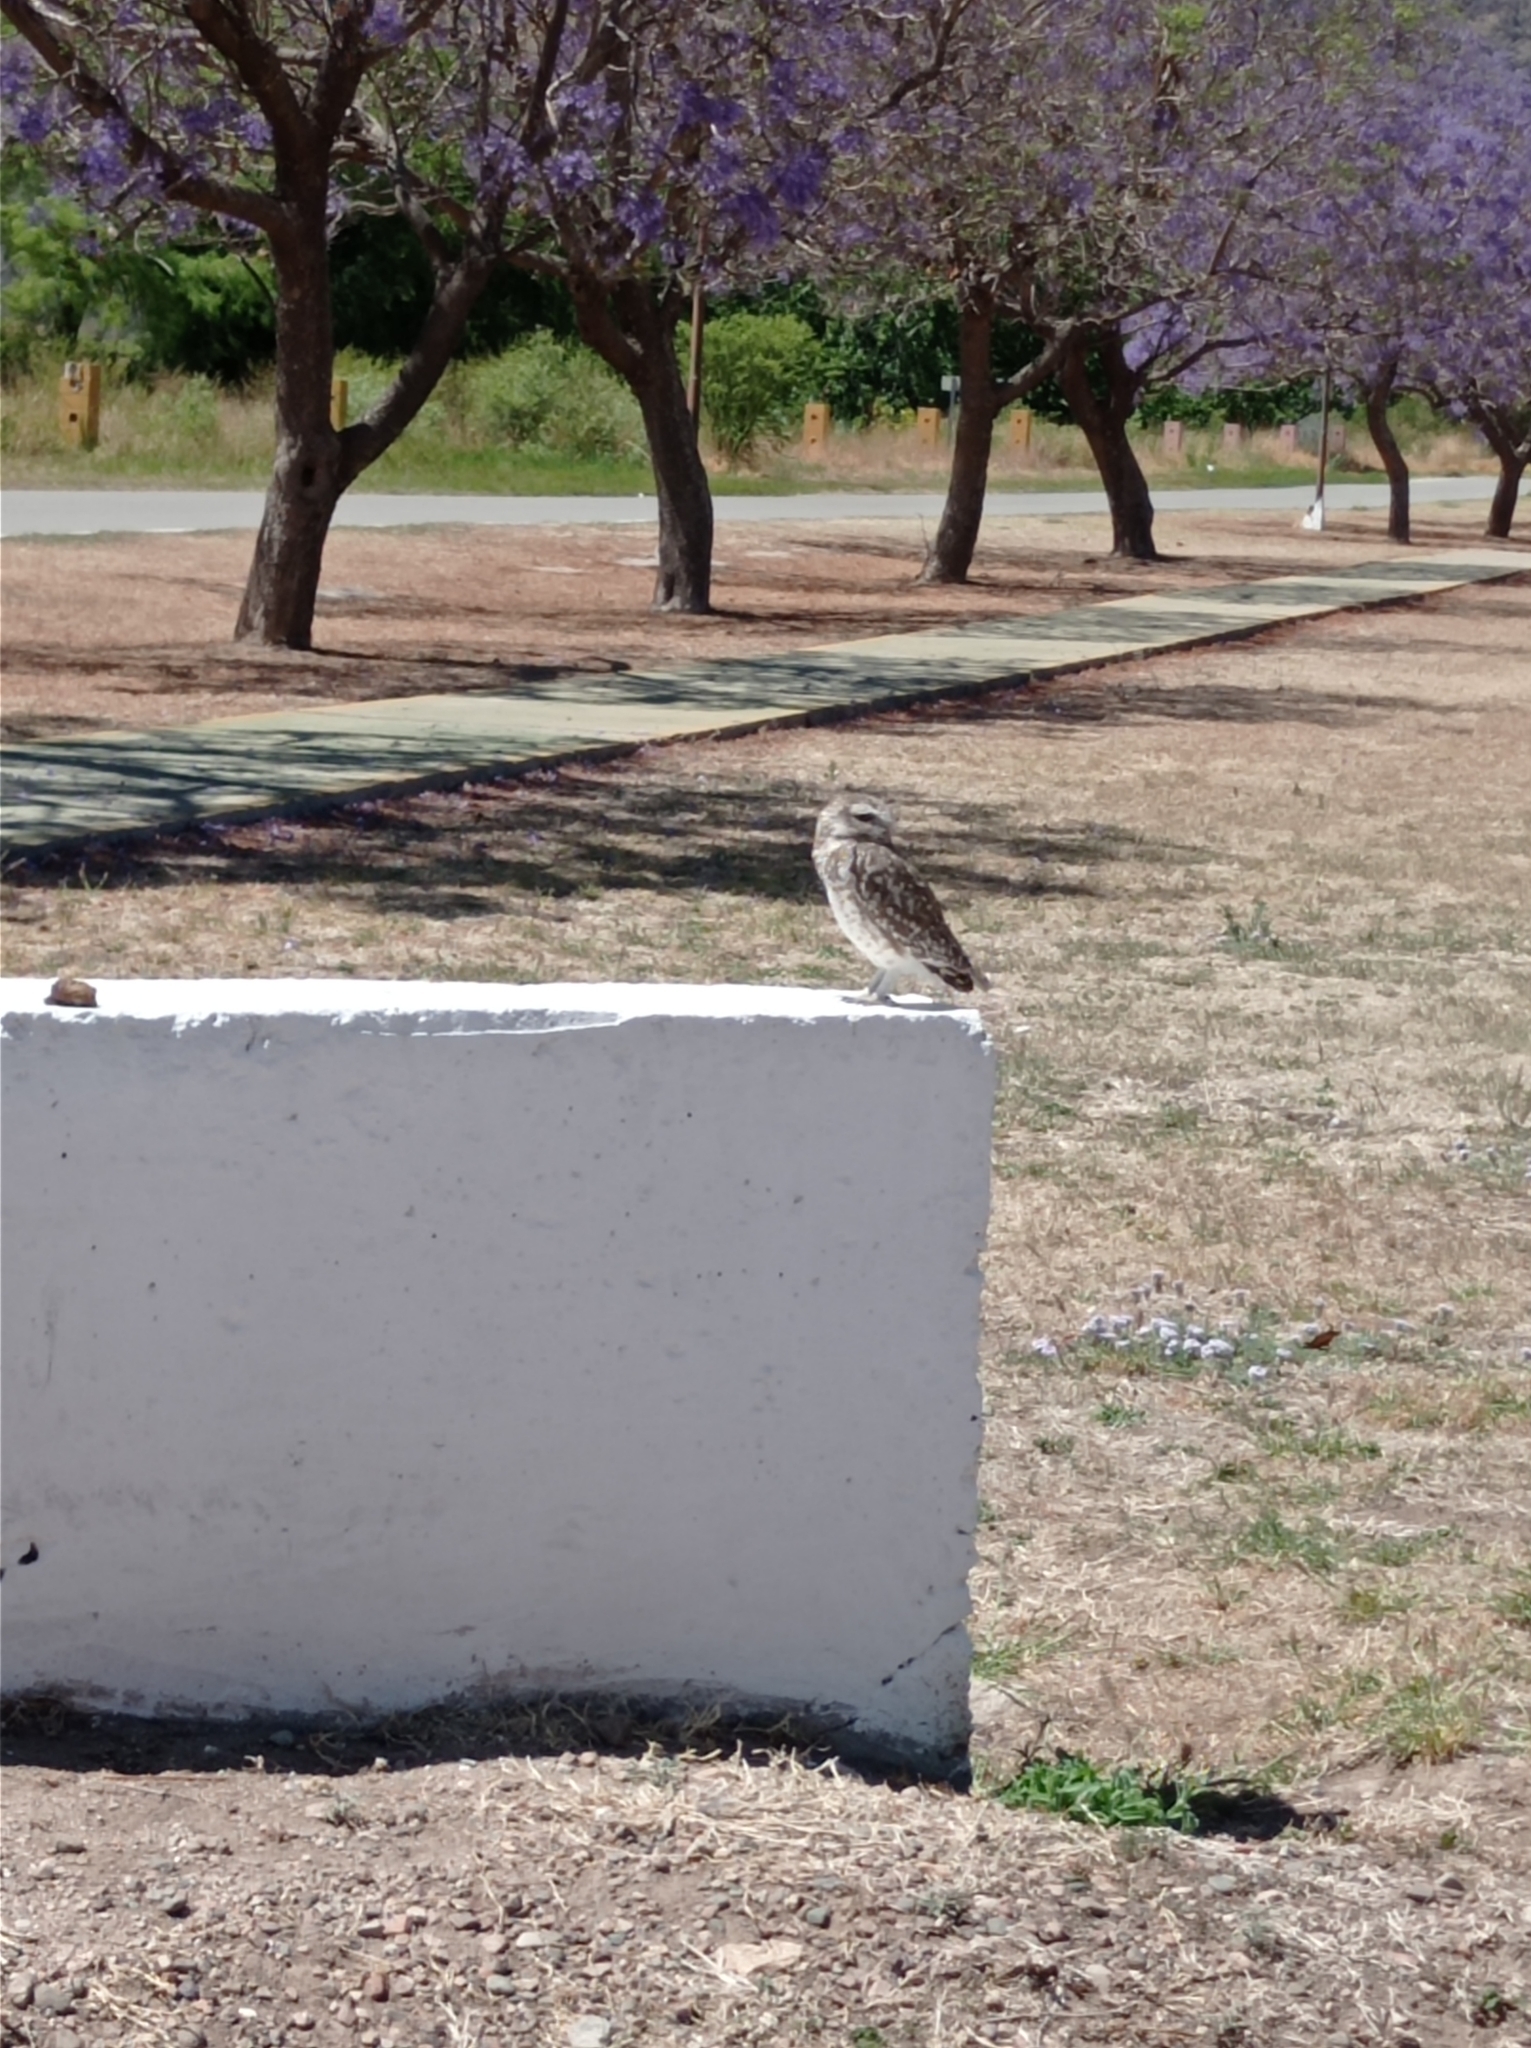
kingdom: Animalia
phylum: Chordata
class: Aves
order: Strigiformes
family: Strigidae
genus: Athene
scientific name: Athene cunicularia
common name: Burrowing owl
